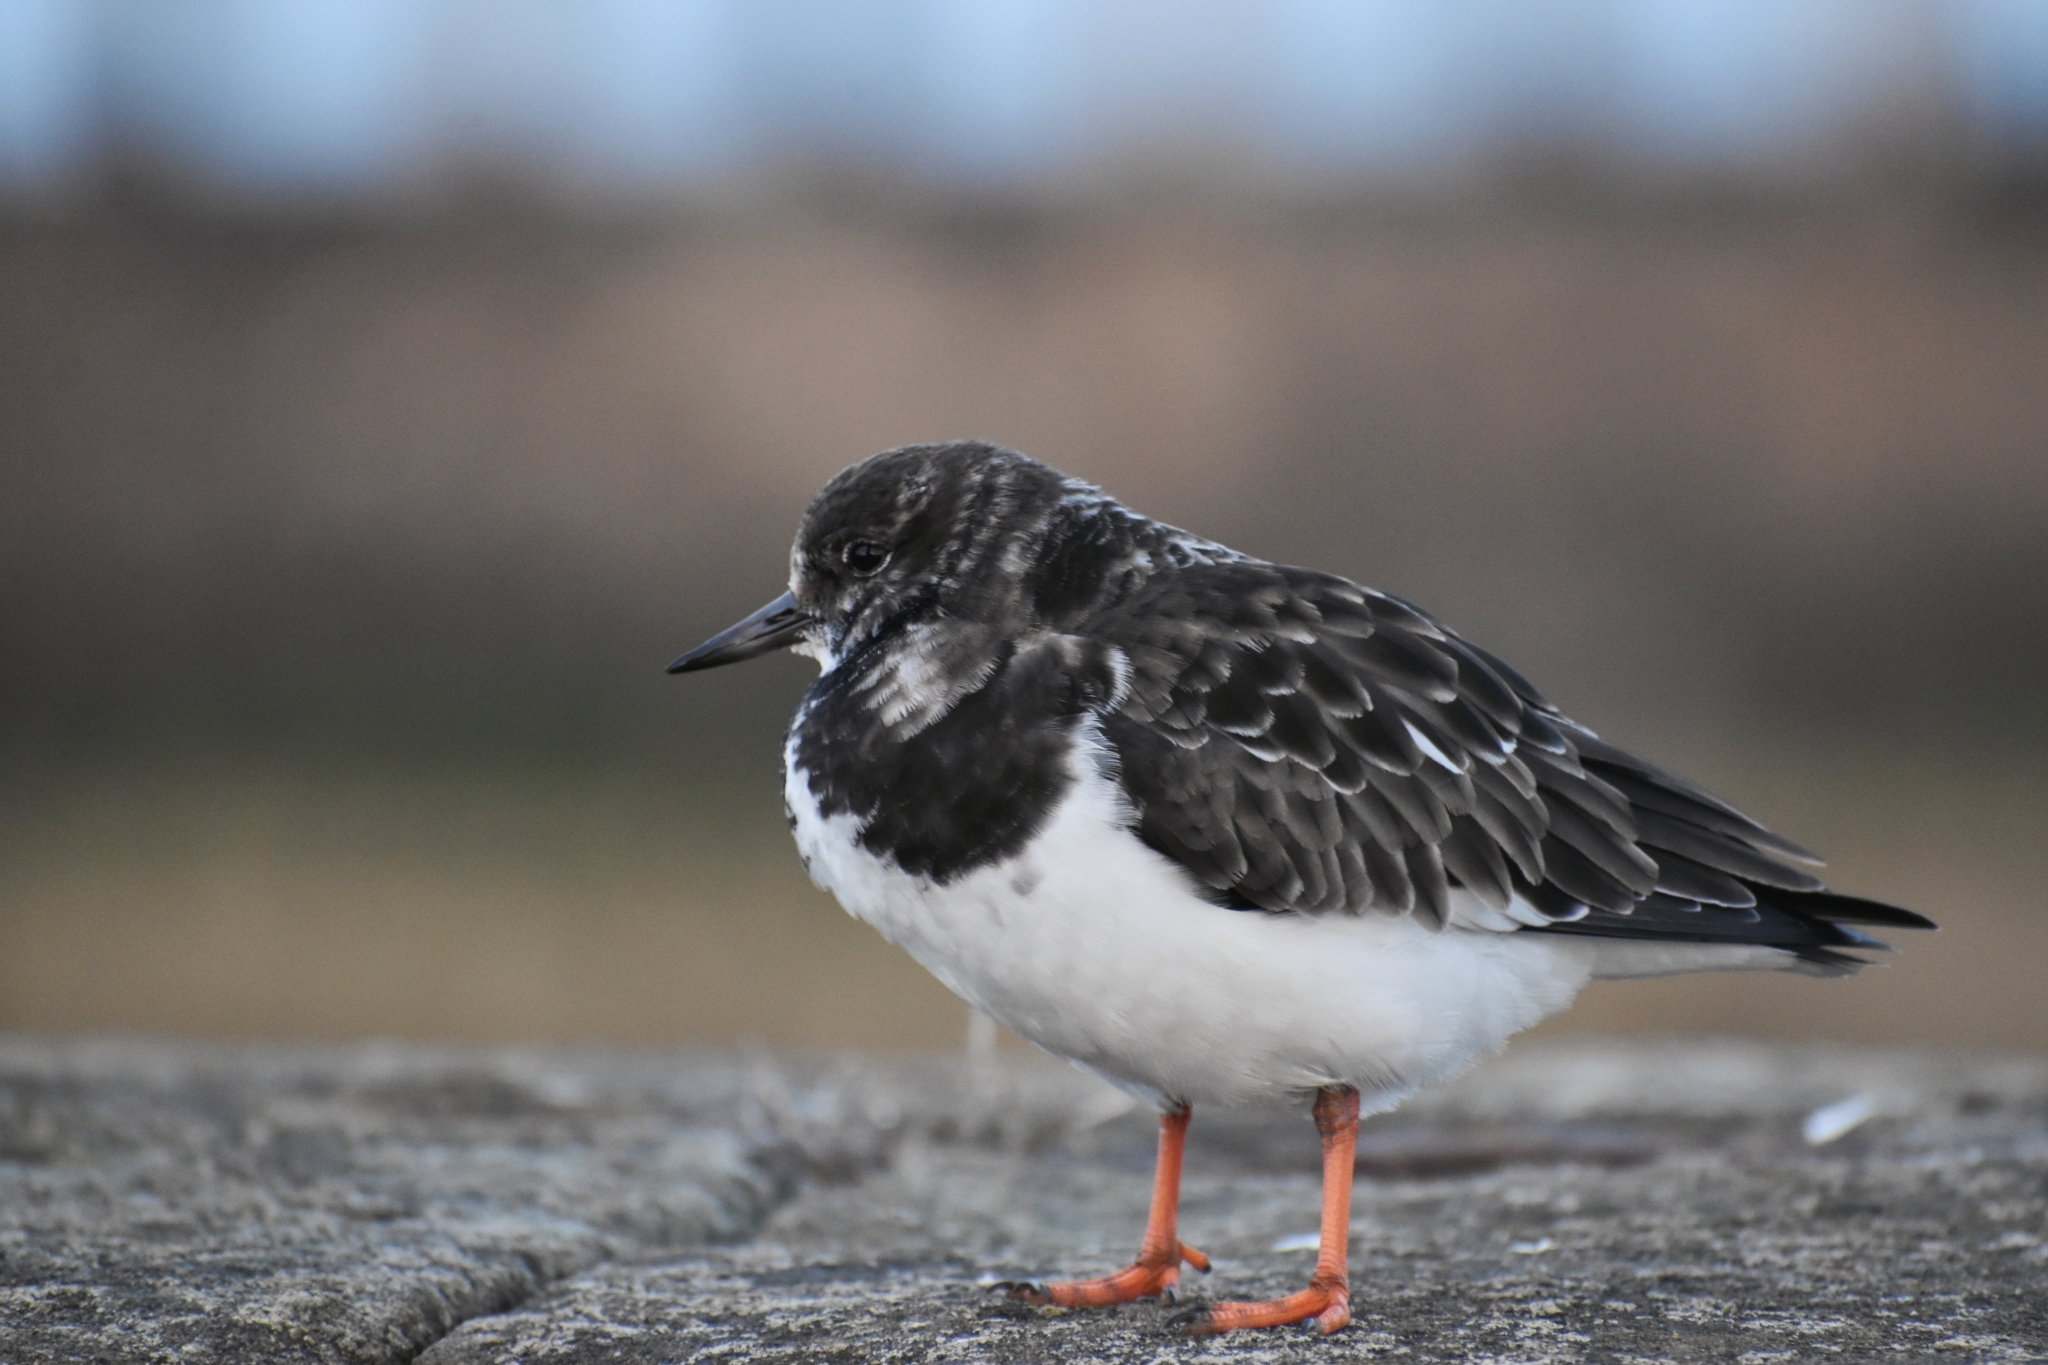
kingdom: Animalia
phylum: Chordata
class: Aves
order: Charadriiformes
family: Scolopacidae
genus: Arenaria
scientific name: Arenaria interpres
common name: Ruddy turnstone
